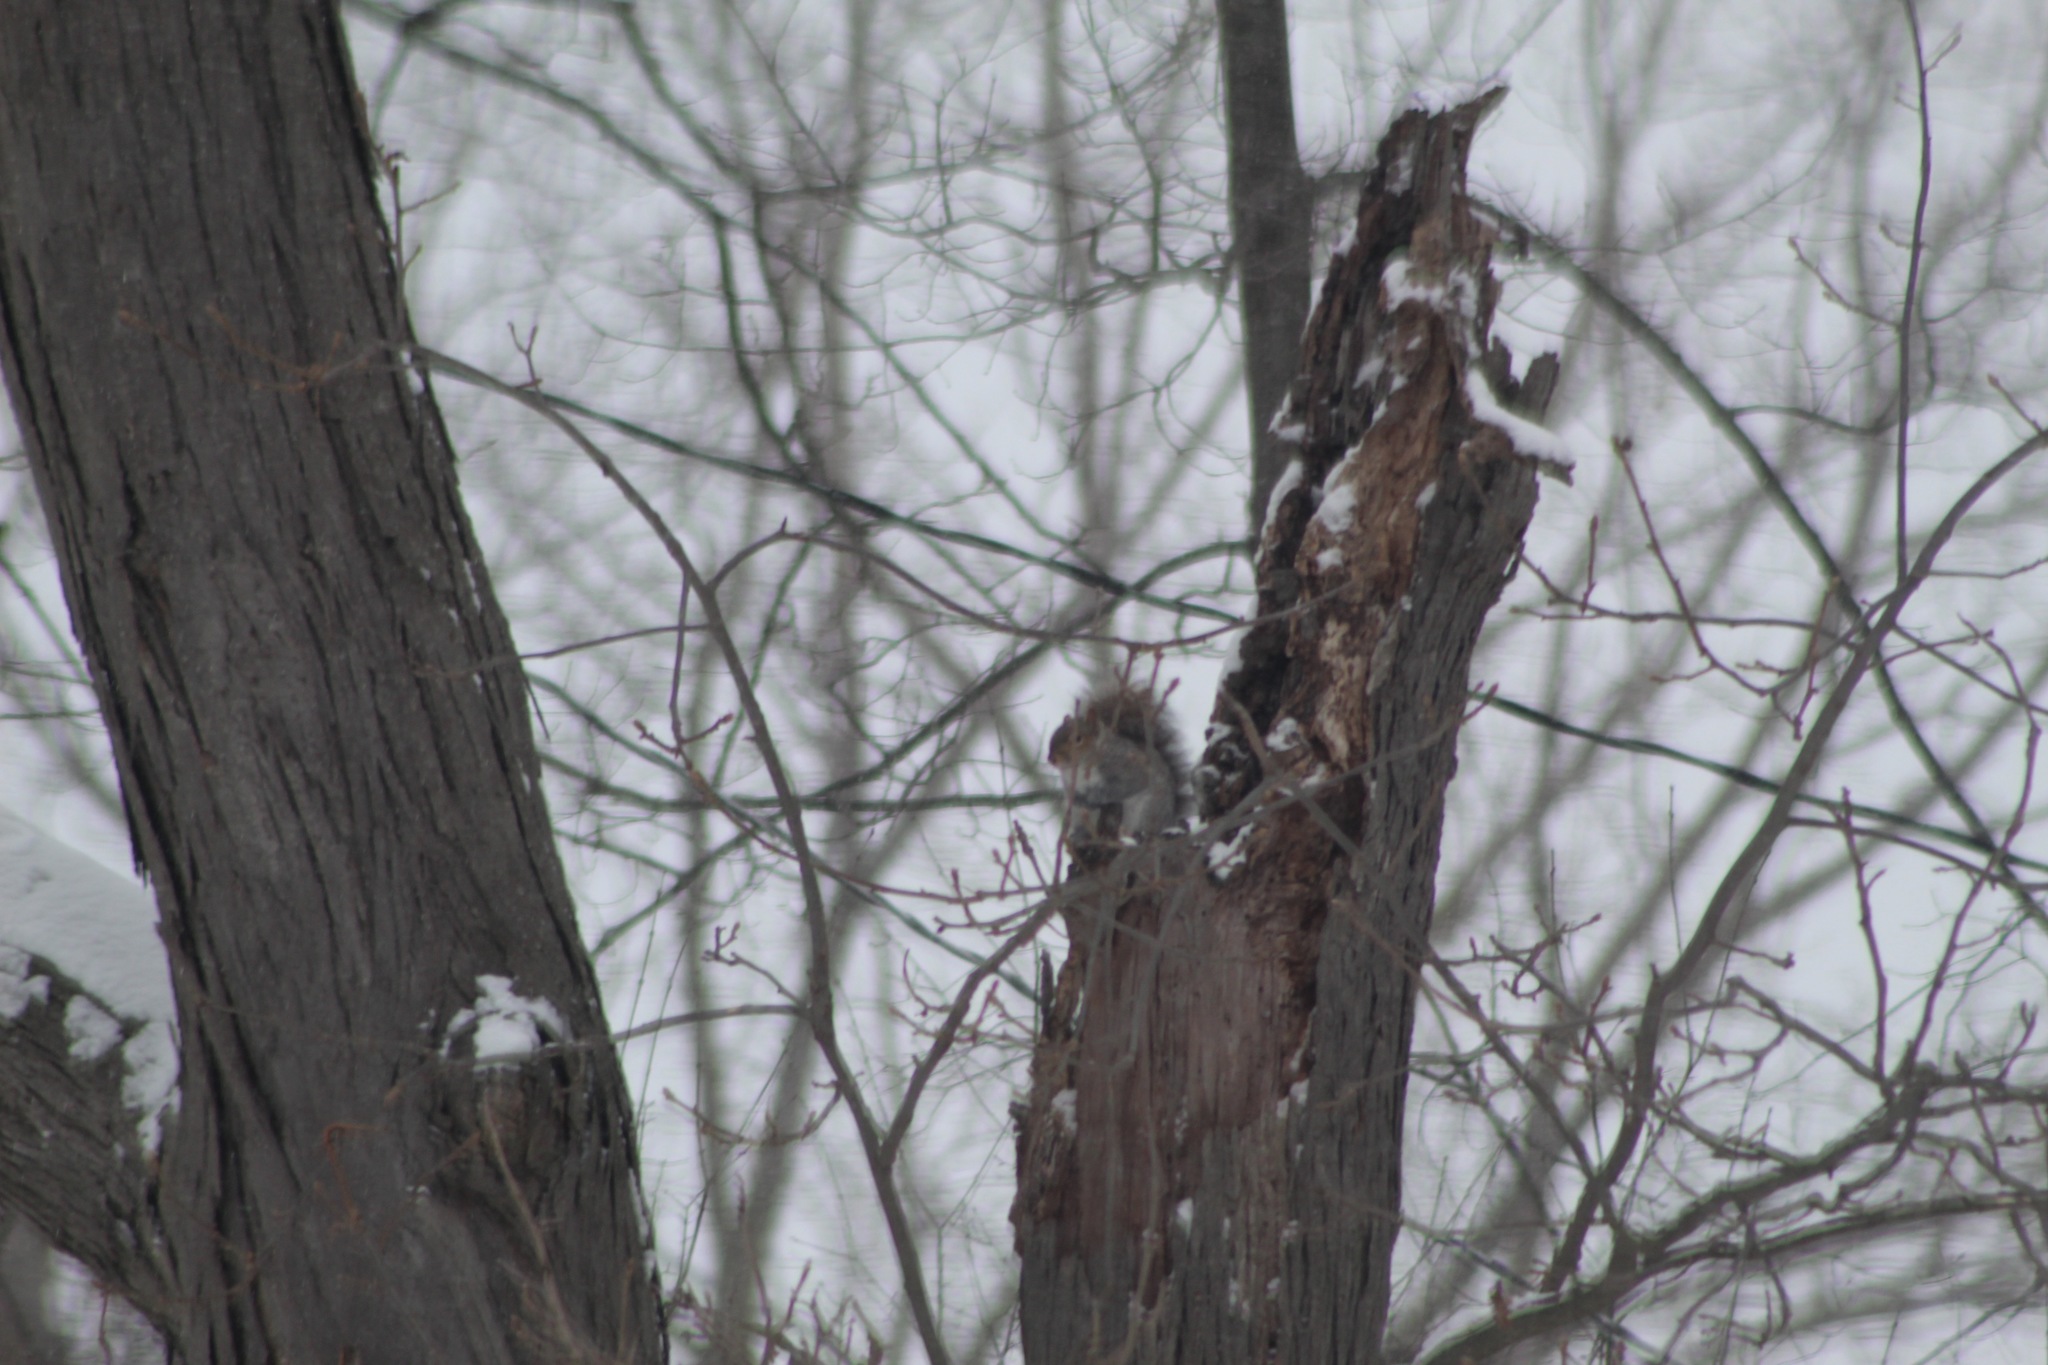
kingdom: Animalia
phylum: Chordata
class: Mammalia
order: Rodentia
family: Sciuridae
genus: Sciurus
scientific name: Sciurus carolinensis
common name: Eastern gray squirrel
